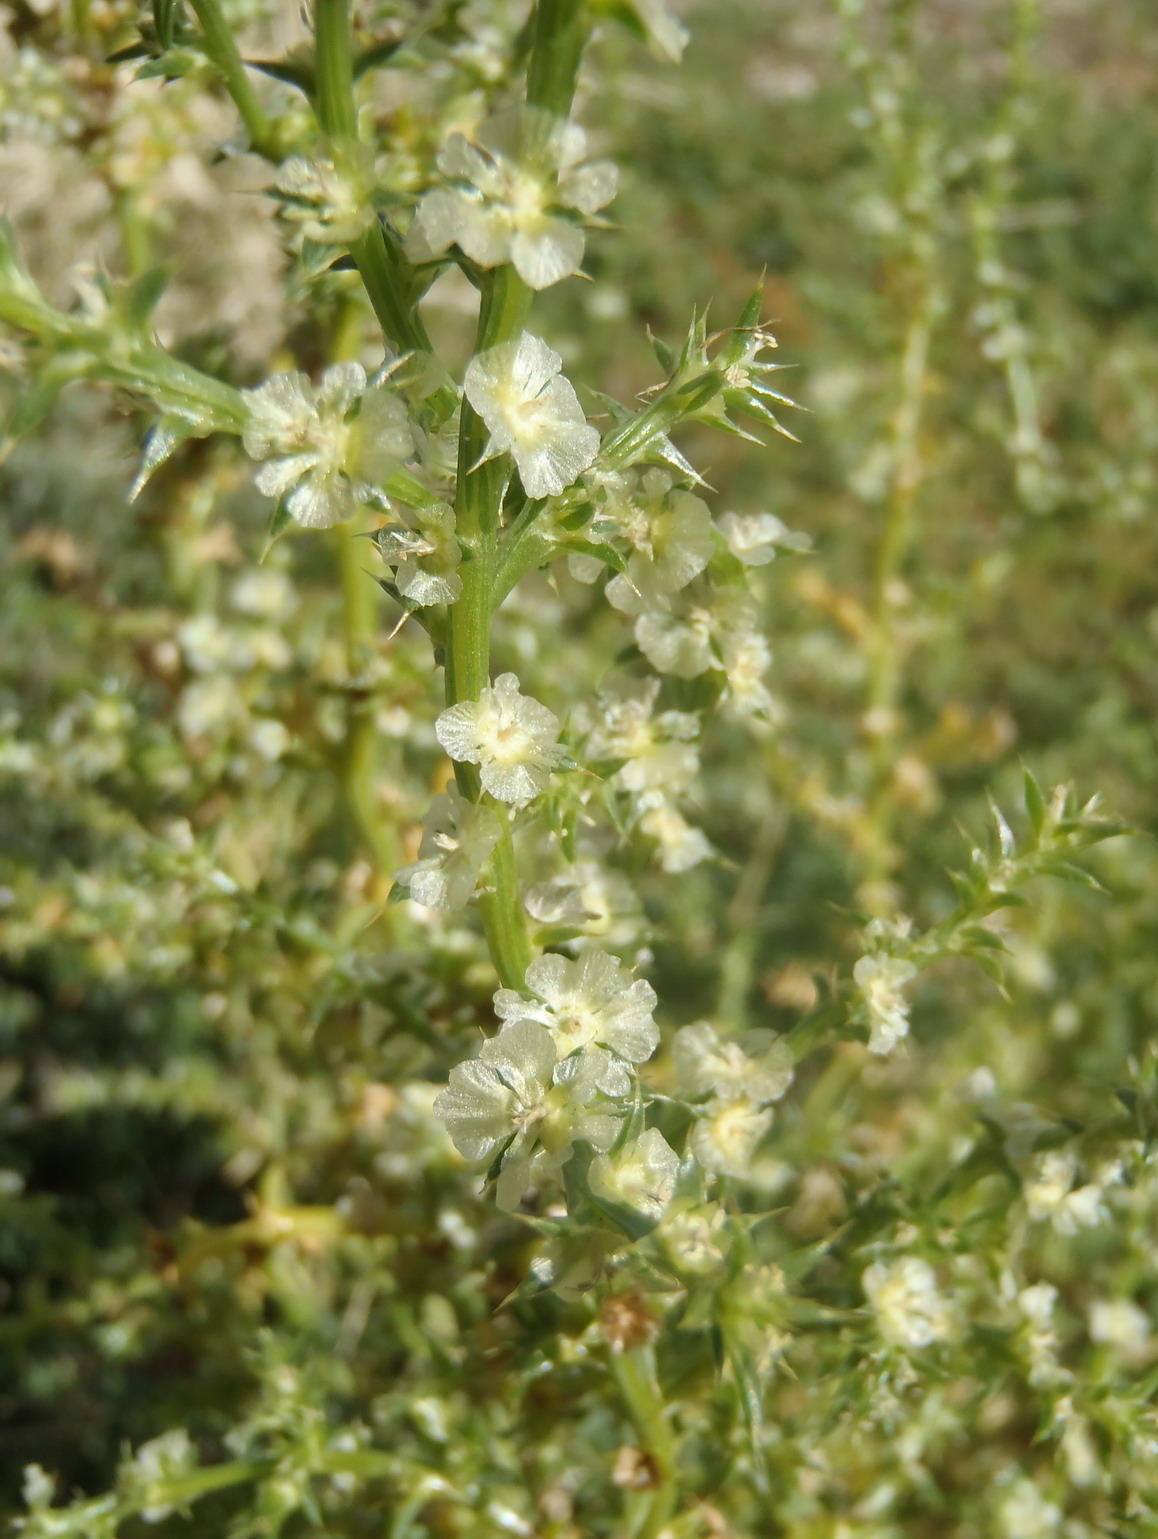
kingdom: Plantae
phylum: Tracheophyta
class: Magnoliopsida
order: Caryophyllales
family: Amaranthaceae
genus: Salsola
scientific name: Salsola kali
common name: Saltwort
